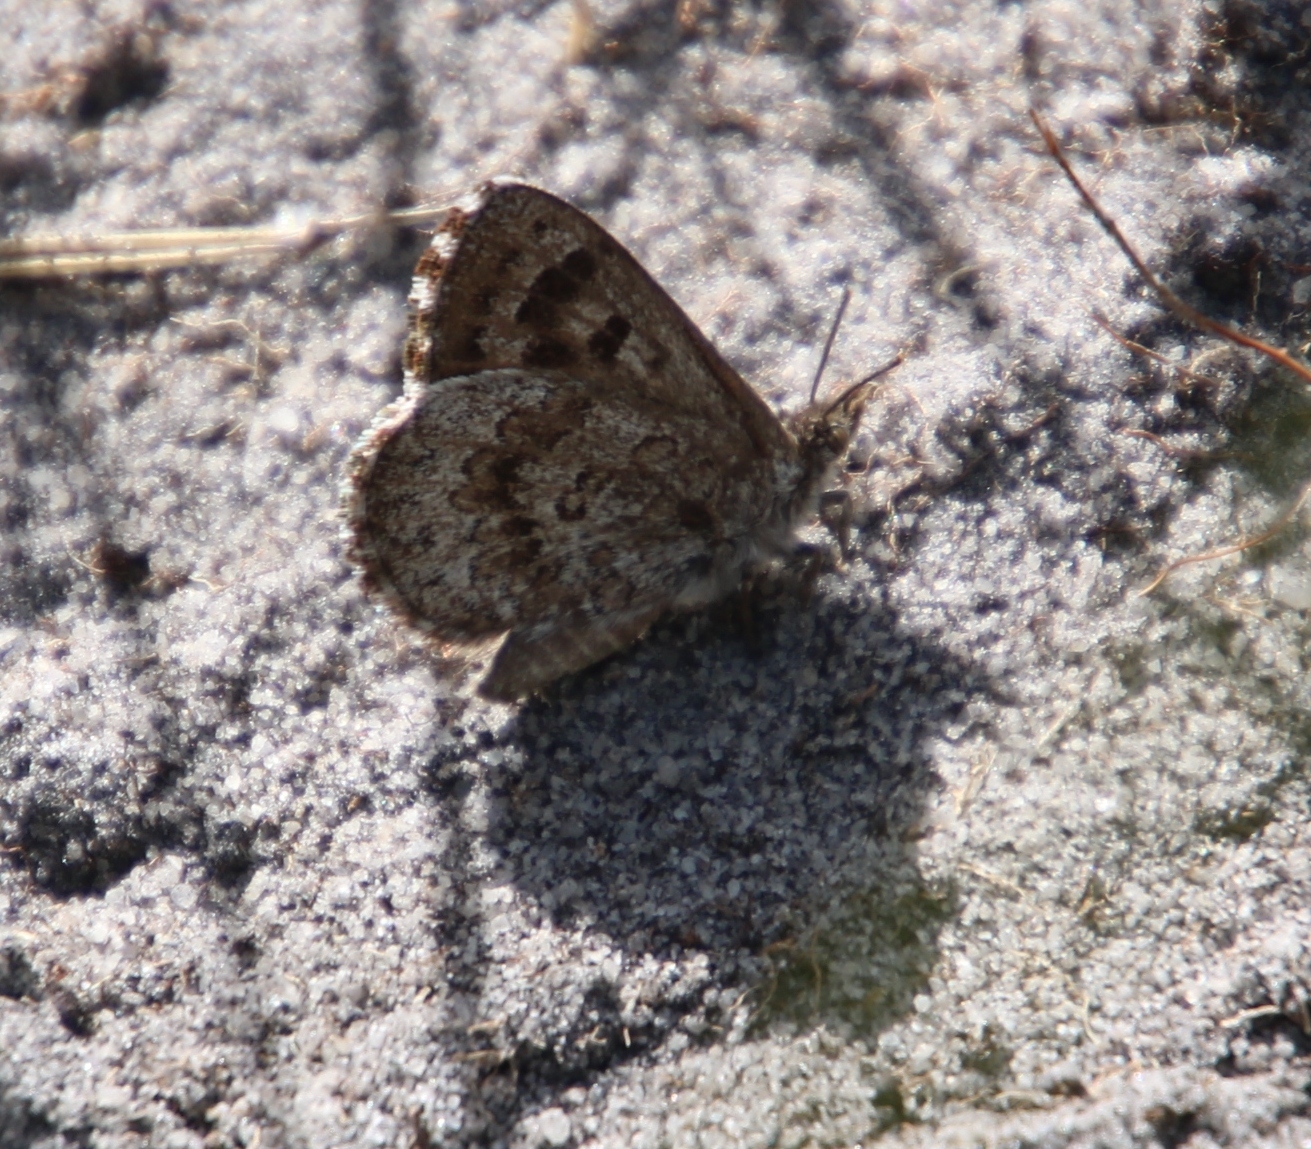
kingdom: Animalia
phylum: Arthropoda
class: Insecta
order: Lepidoptera
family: Lycaenidae
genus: Thestor
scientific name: Thestor yildizae
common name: Peninsula skolly
